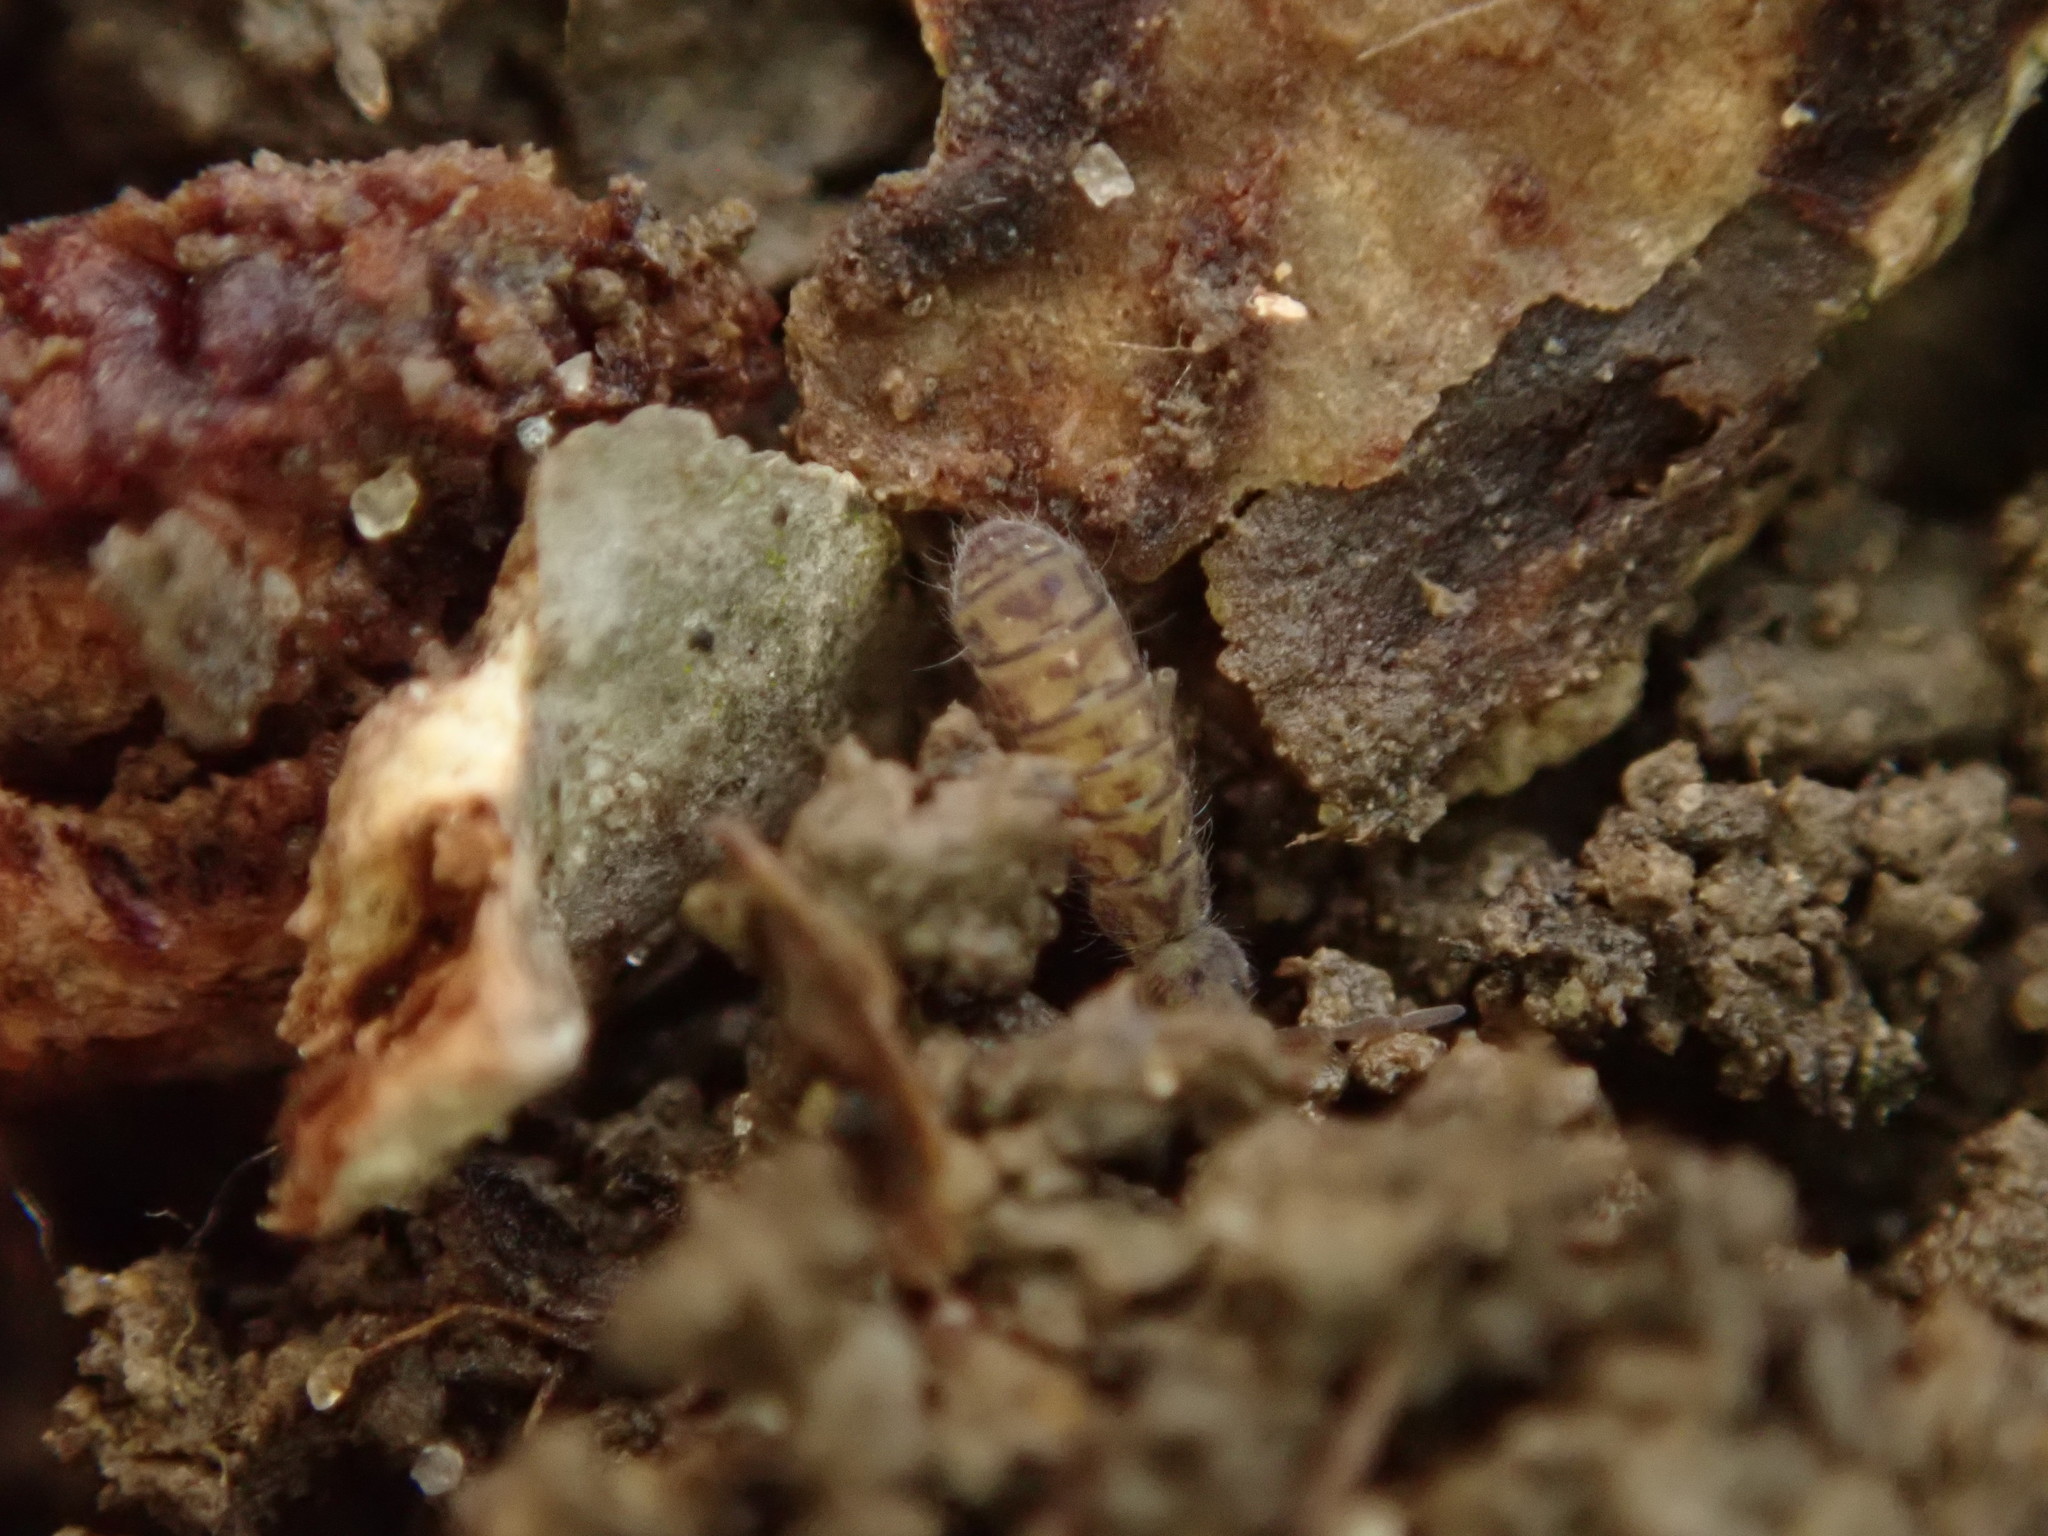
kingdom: Animalia
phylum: Arthropoda
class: Collembola
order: Entomobryomorpha
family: Isotomidae
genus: Isotoma
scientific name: Isotoma delta
